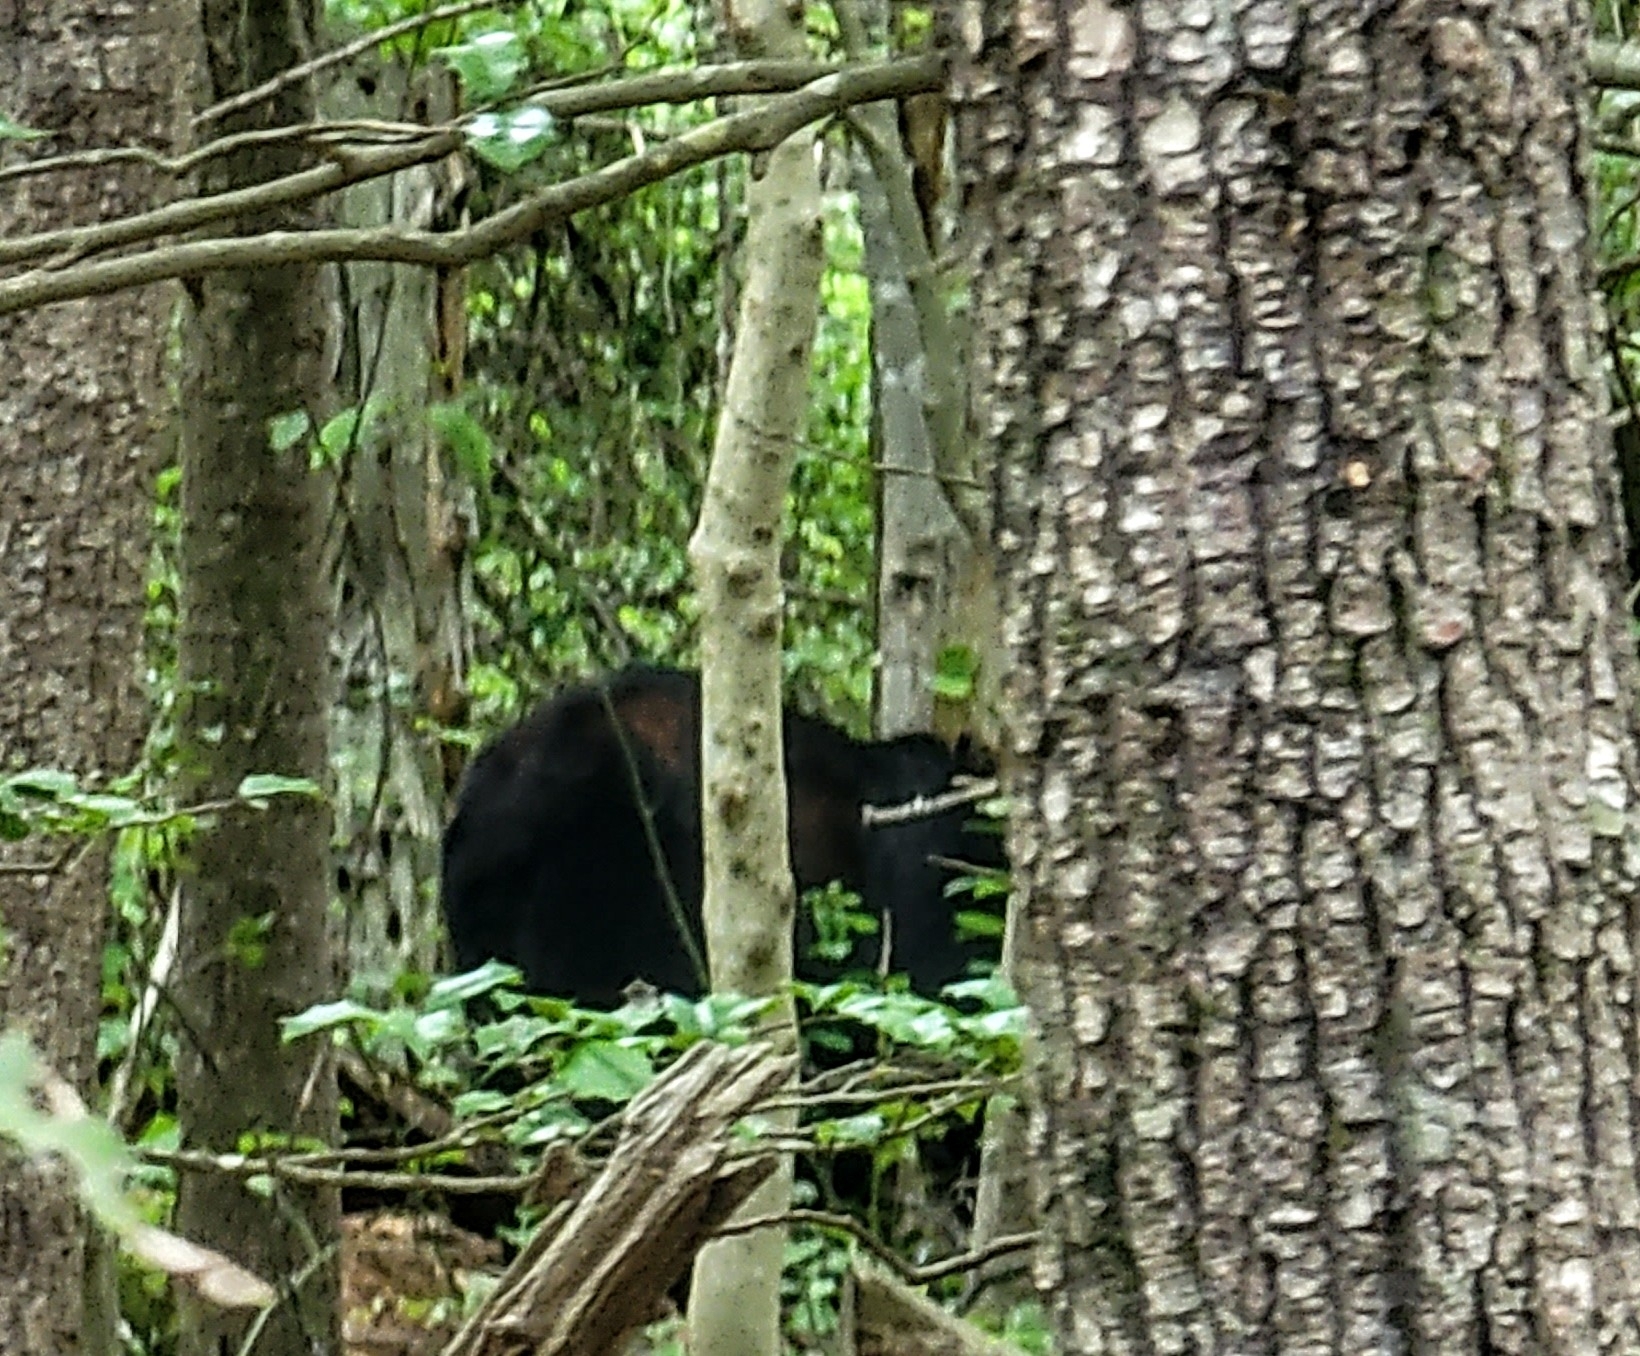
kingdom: Animalia
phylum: Chordata
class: Mammalia
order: Carnivora
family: Ursidae
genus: Ursus
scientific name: Ursus americanus
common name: American black bear
